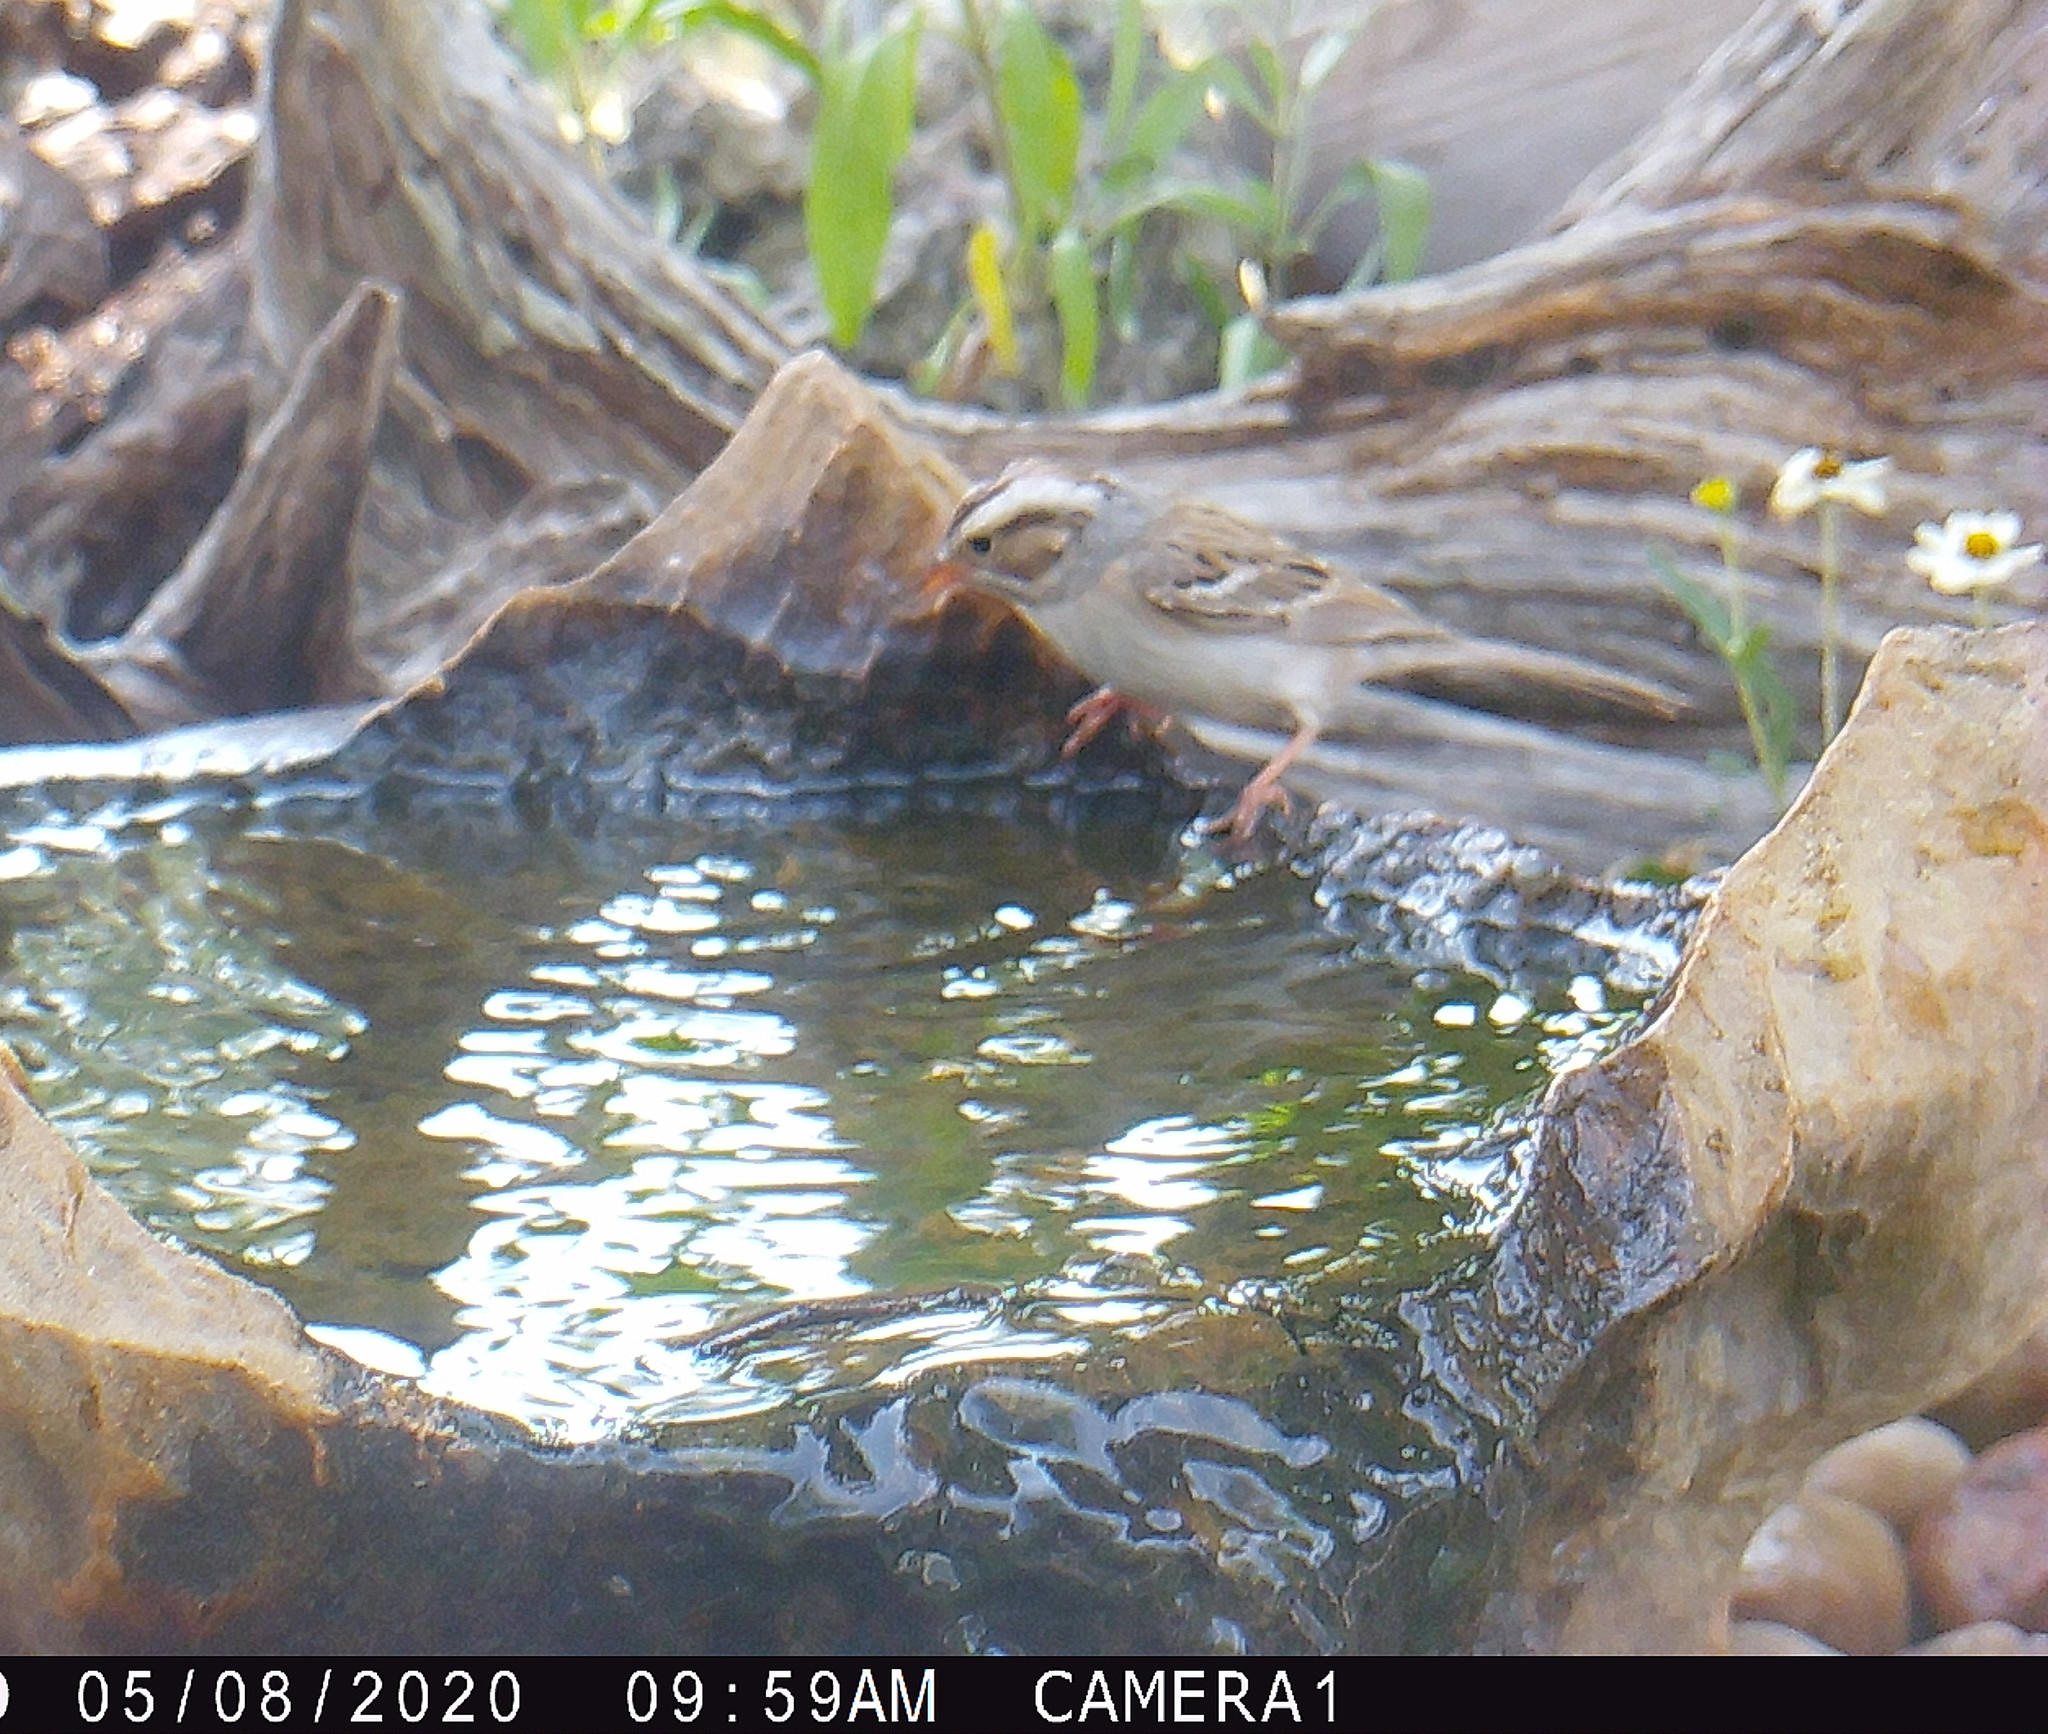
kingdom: Animalia
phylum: Chordata
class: Aves
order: Passeriformes
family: Passerellidae
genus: Spizella
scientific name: Spizella pallida
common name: Clay-colored sparrow
